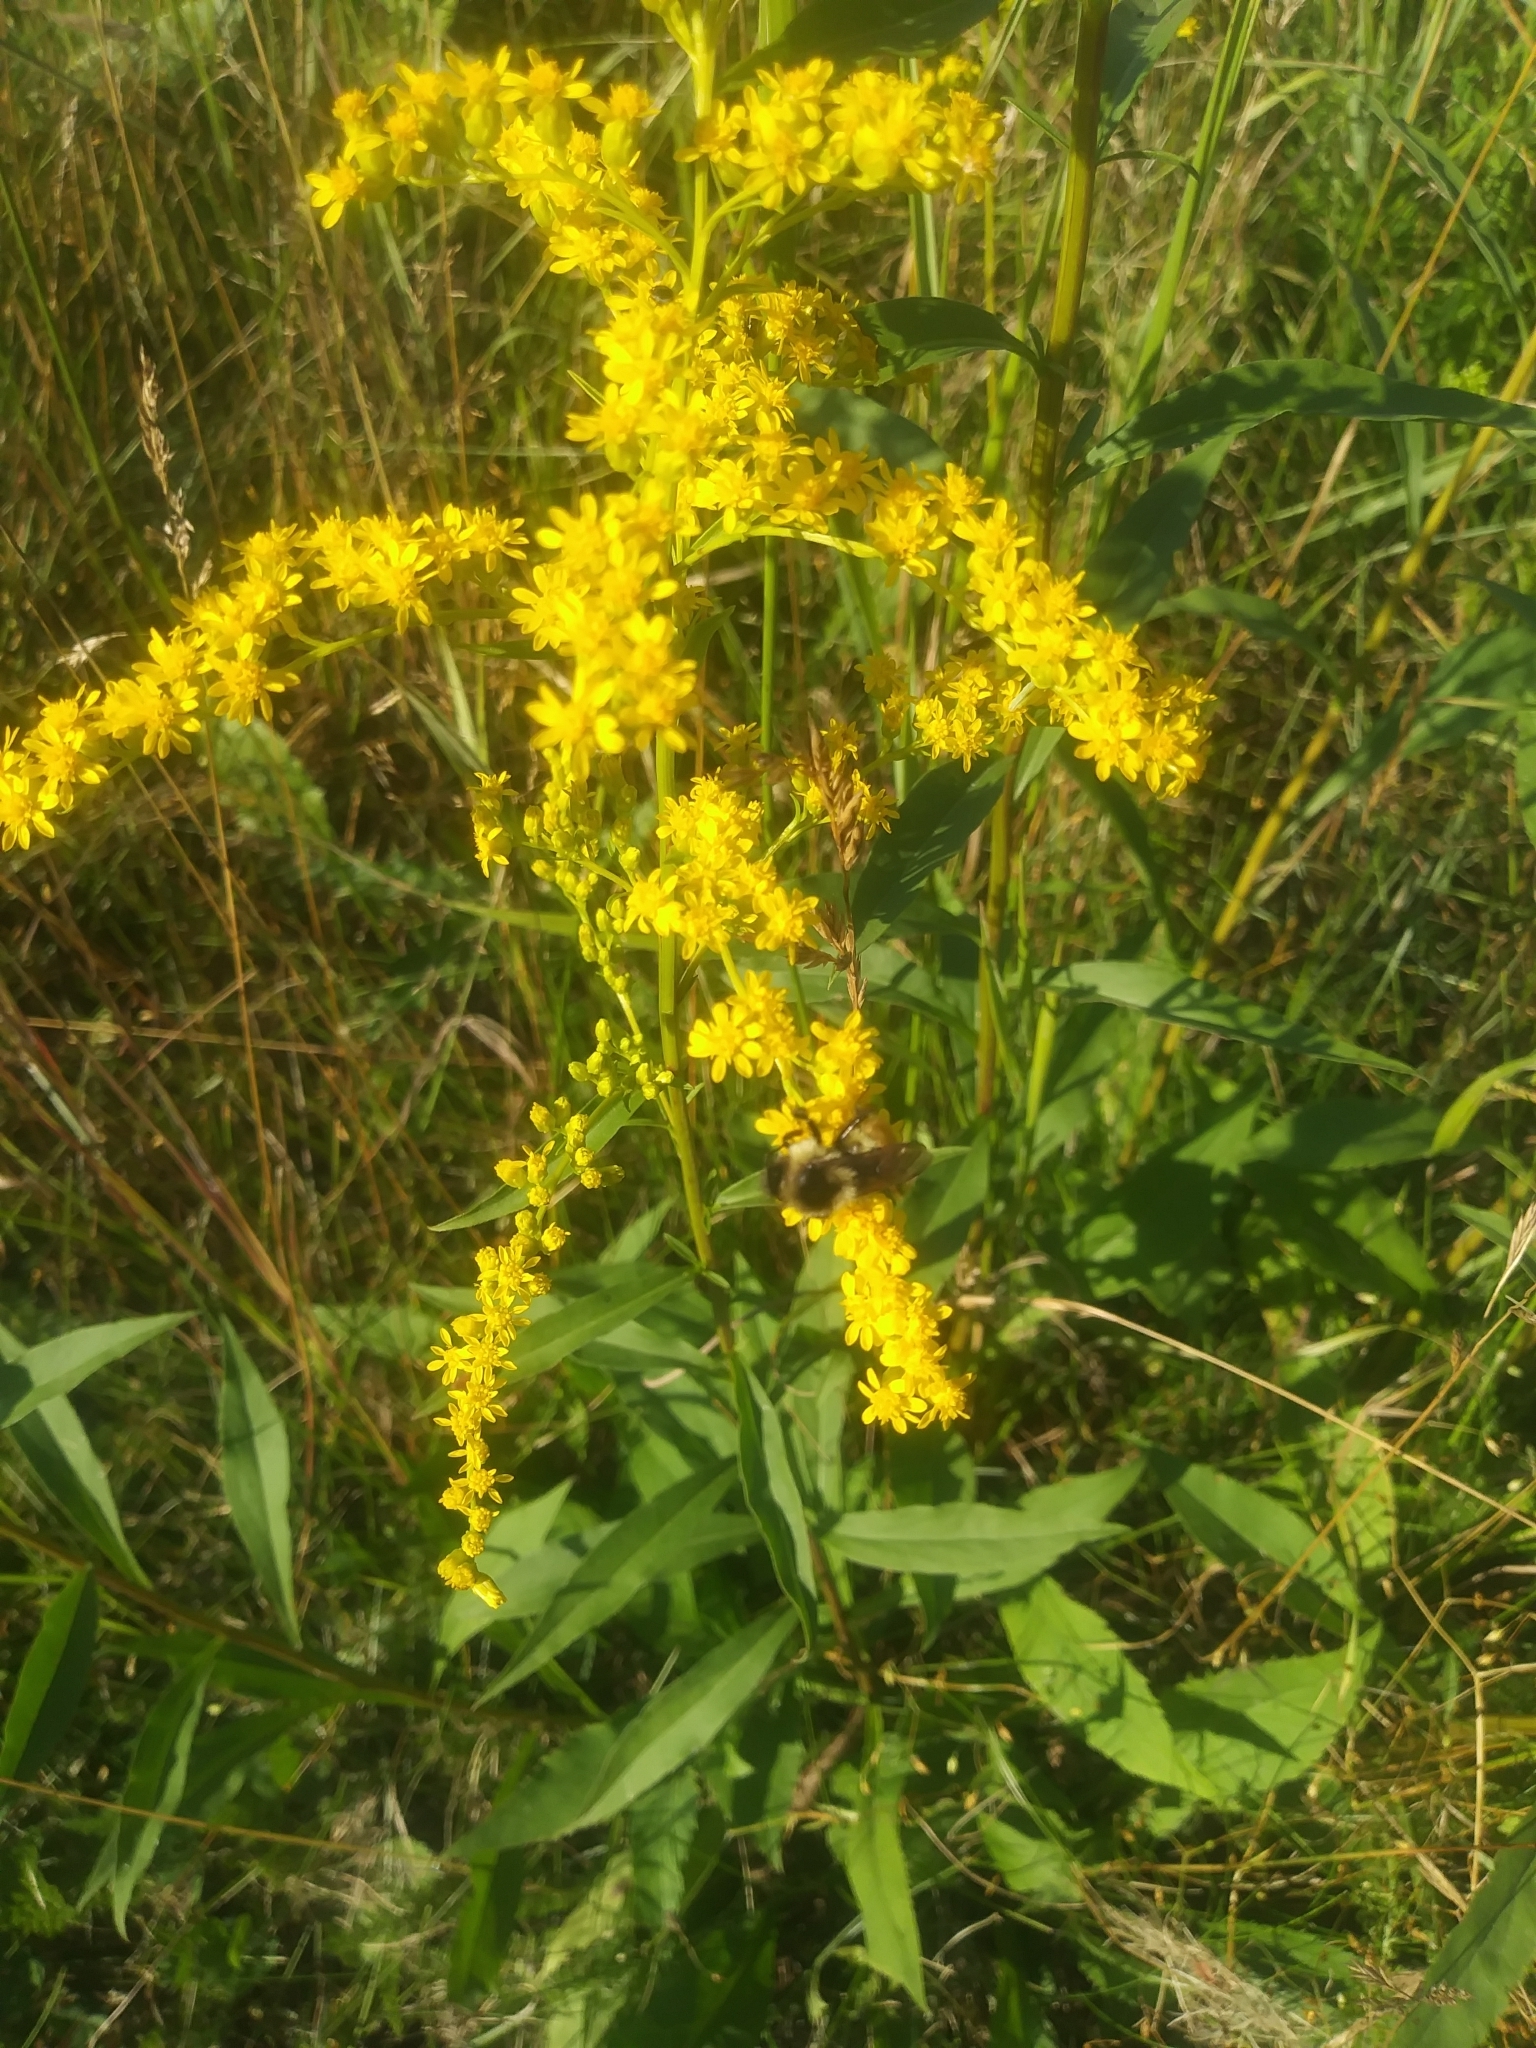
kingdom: Animalia
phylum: Arthropoda
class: Insecta
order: Hymenoptera
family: Apidae
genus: Bombus
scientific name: Bombus ternarius
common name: Tri-colored bumble bee
